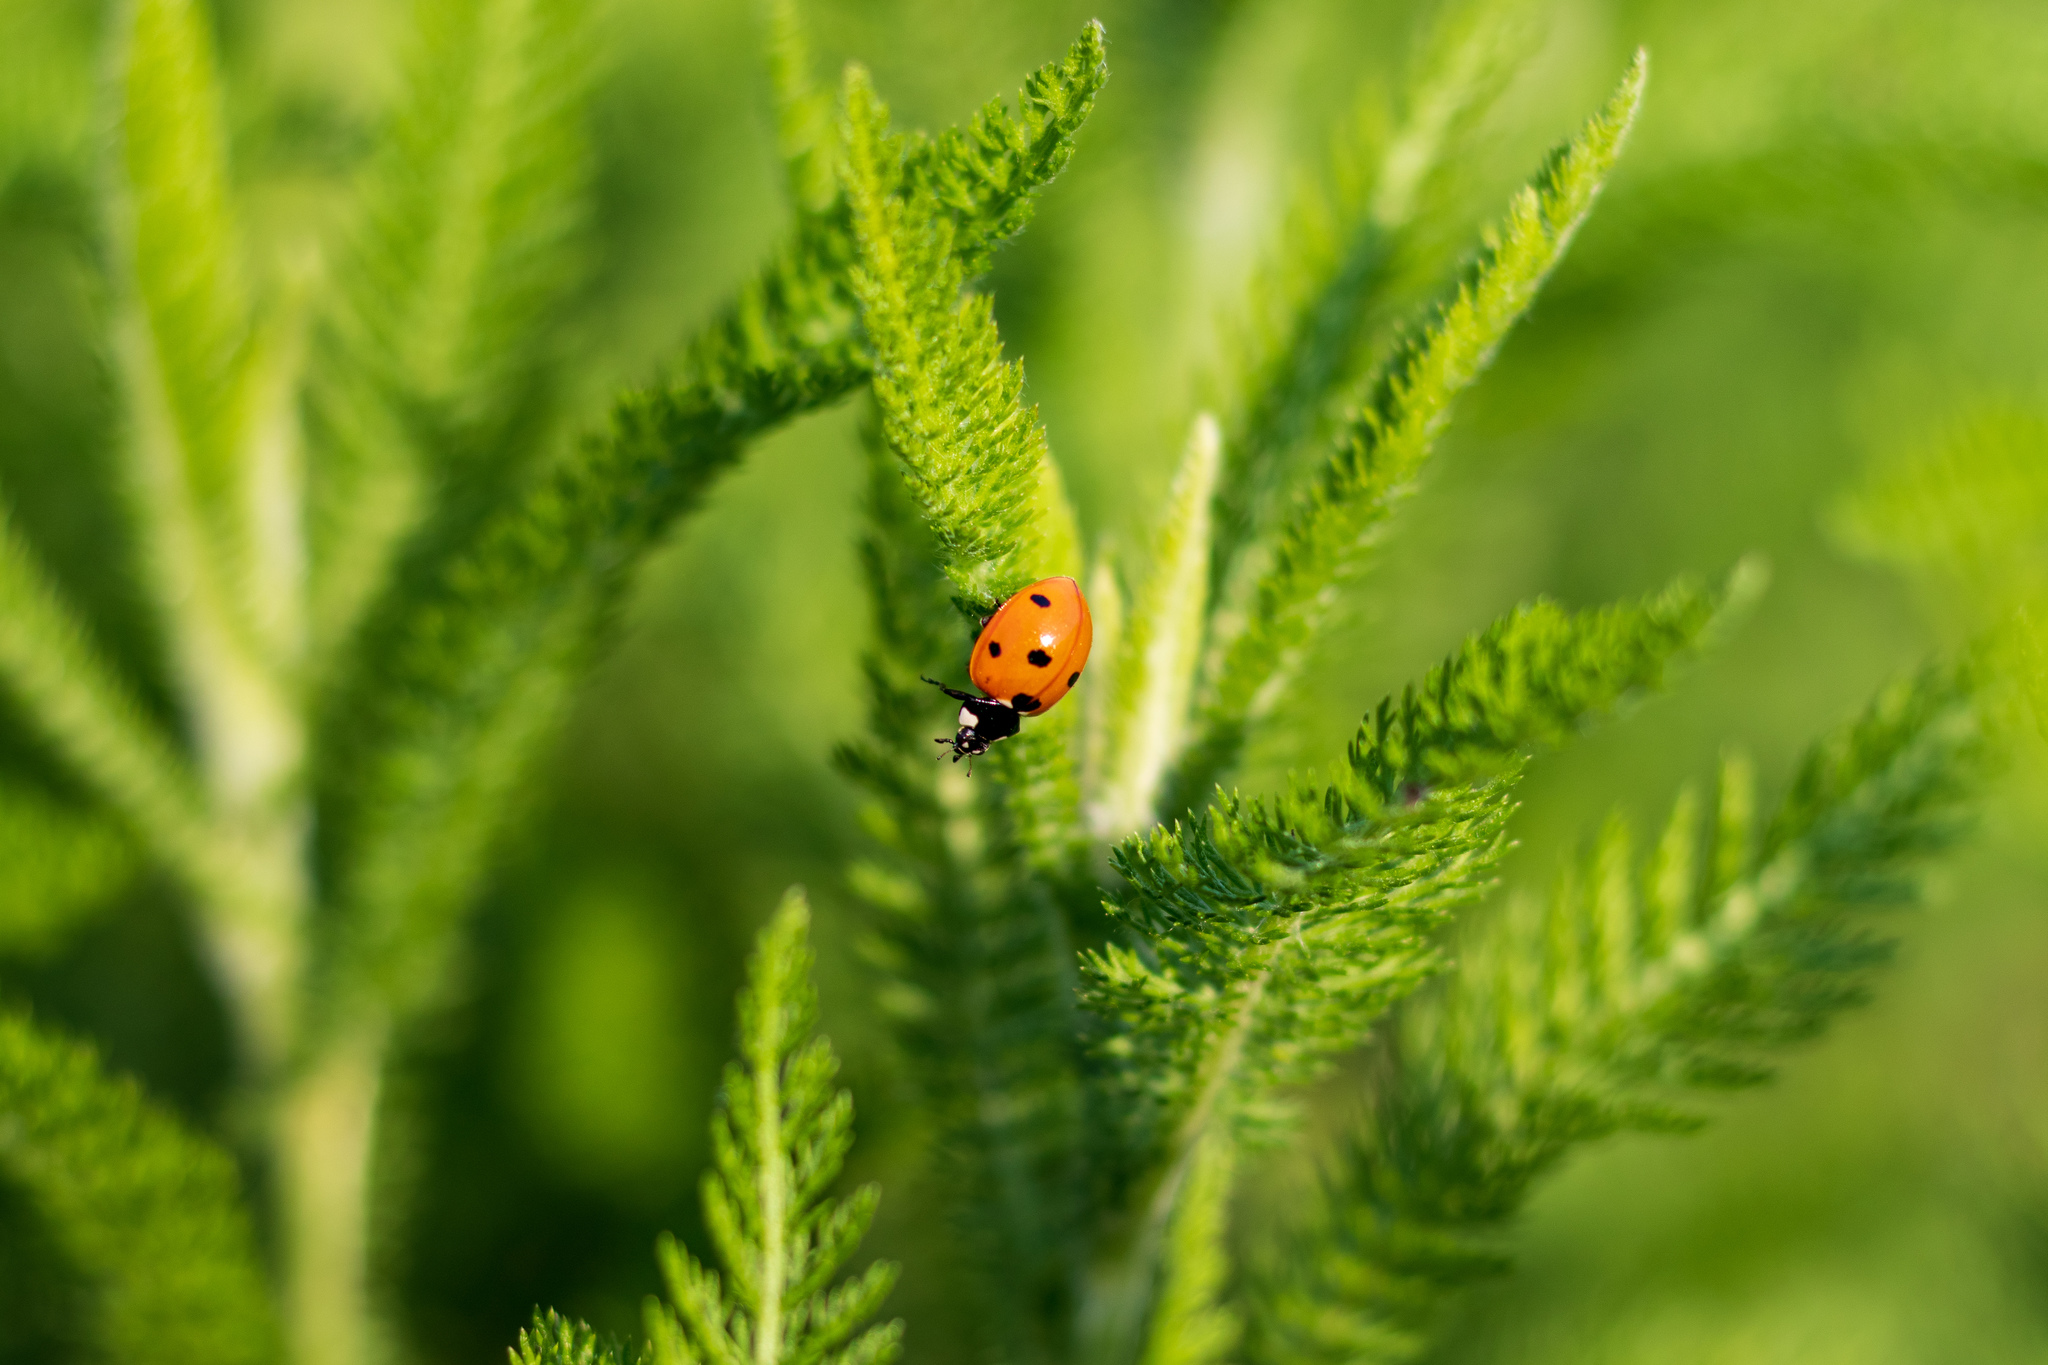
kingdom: Animalia
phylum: Arthropoda
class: Insecta
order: Coleoptera
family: Coccinellidae
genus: Coccinella
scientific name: Coccinella septempunctata
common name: Sevenspotted lady beetle
